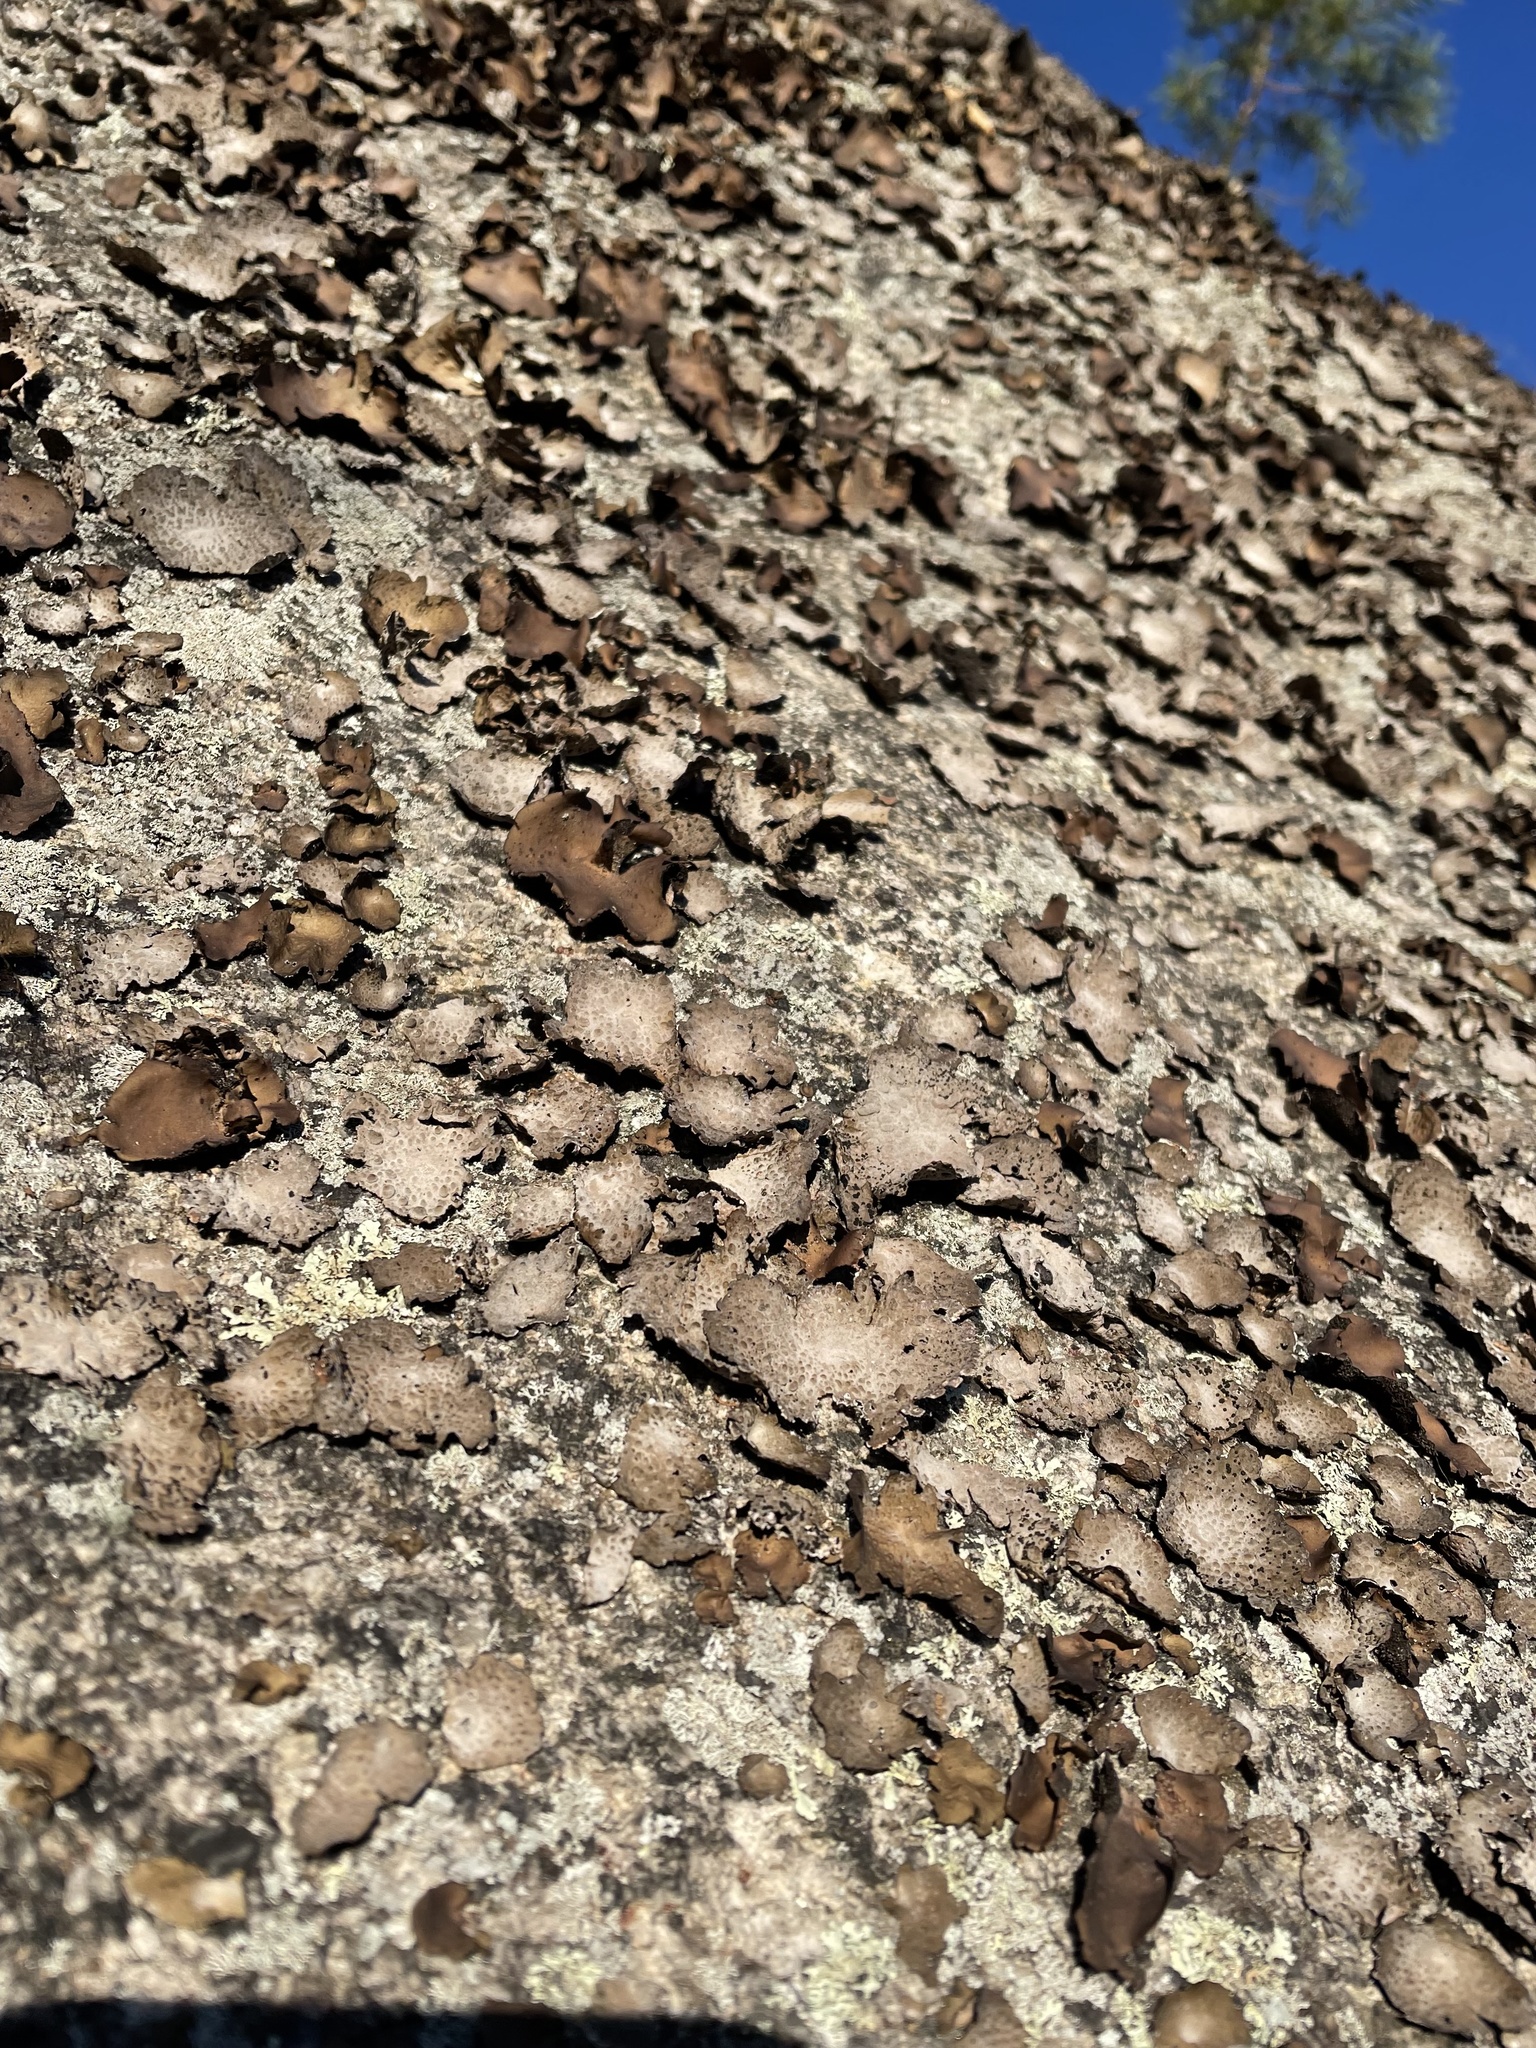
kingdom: Fungi
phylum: Ascomycota
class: Lecanoromycetes
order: Umbilicariales
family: Umbilicariaceae
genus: Lasallia
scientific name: Lasallia papulosa
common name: Common toadskin lichen
